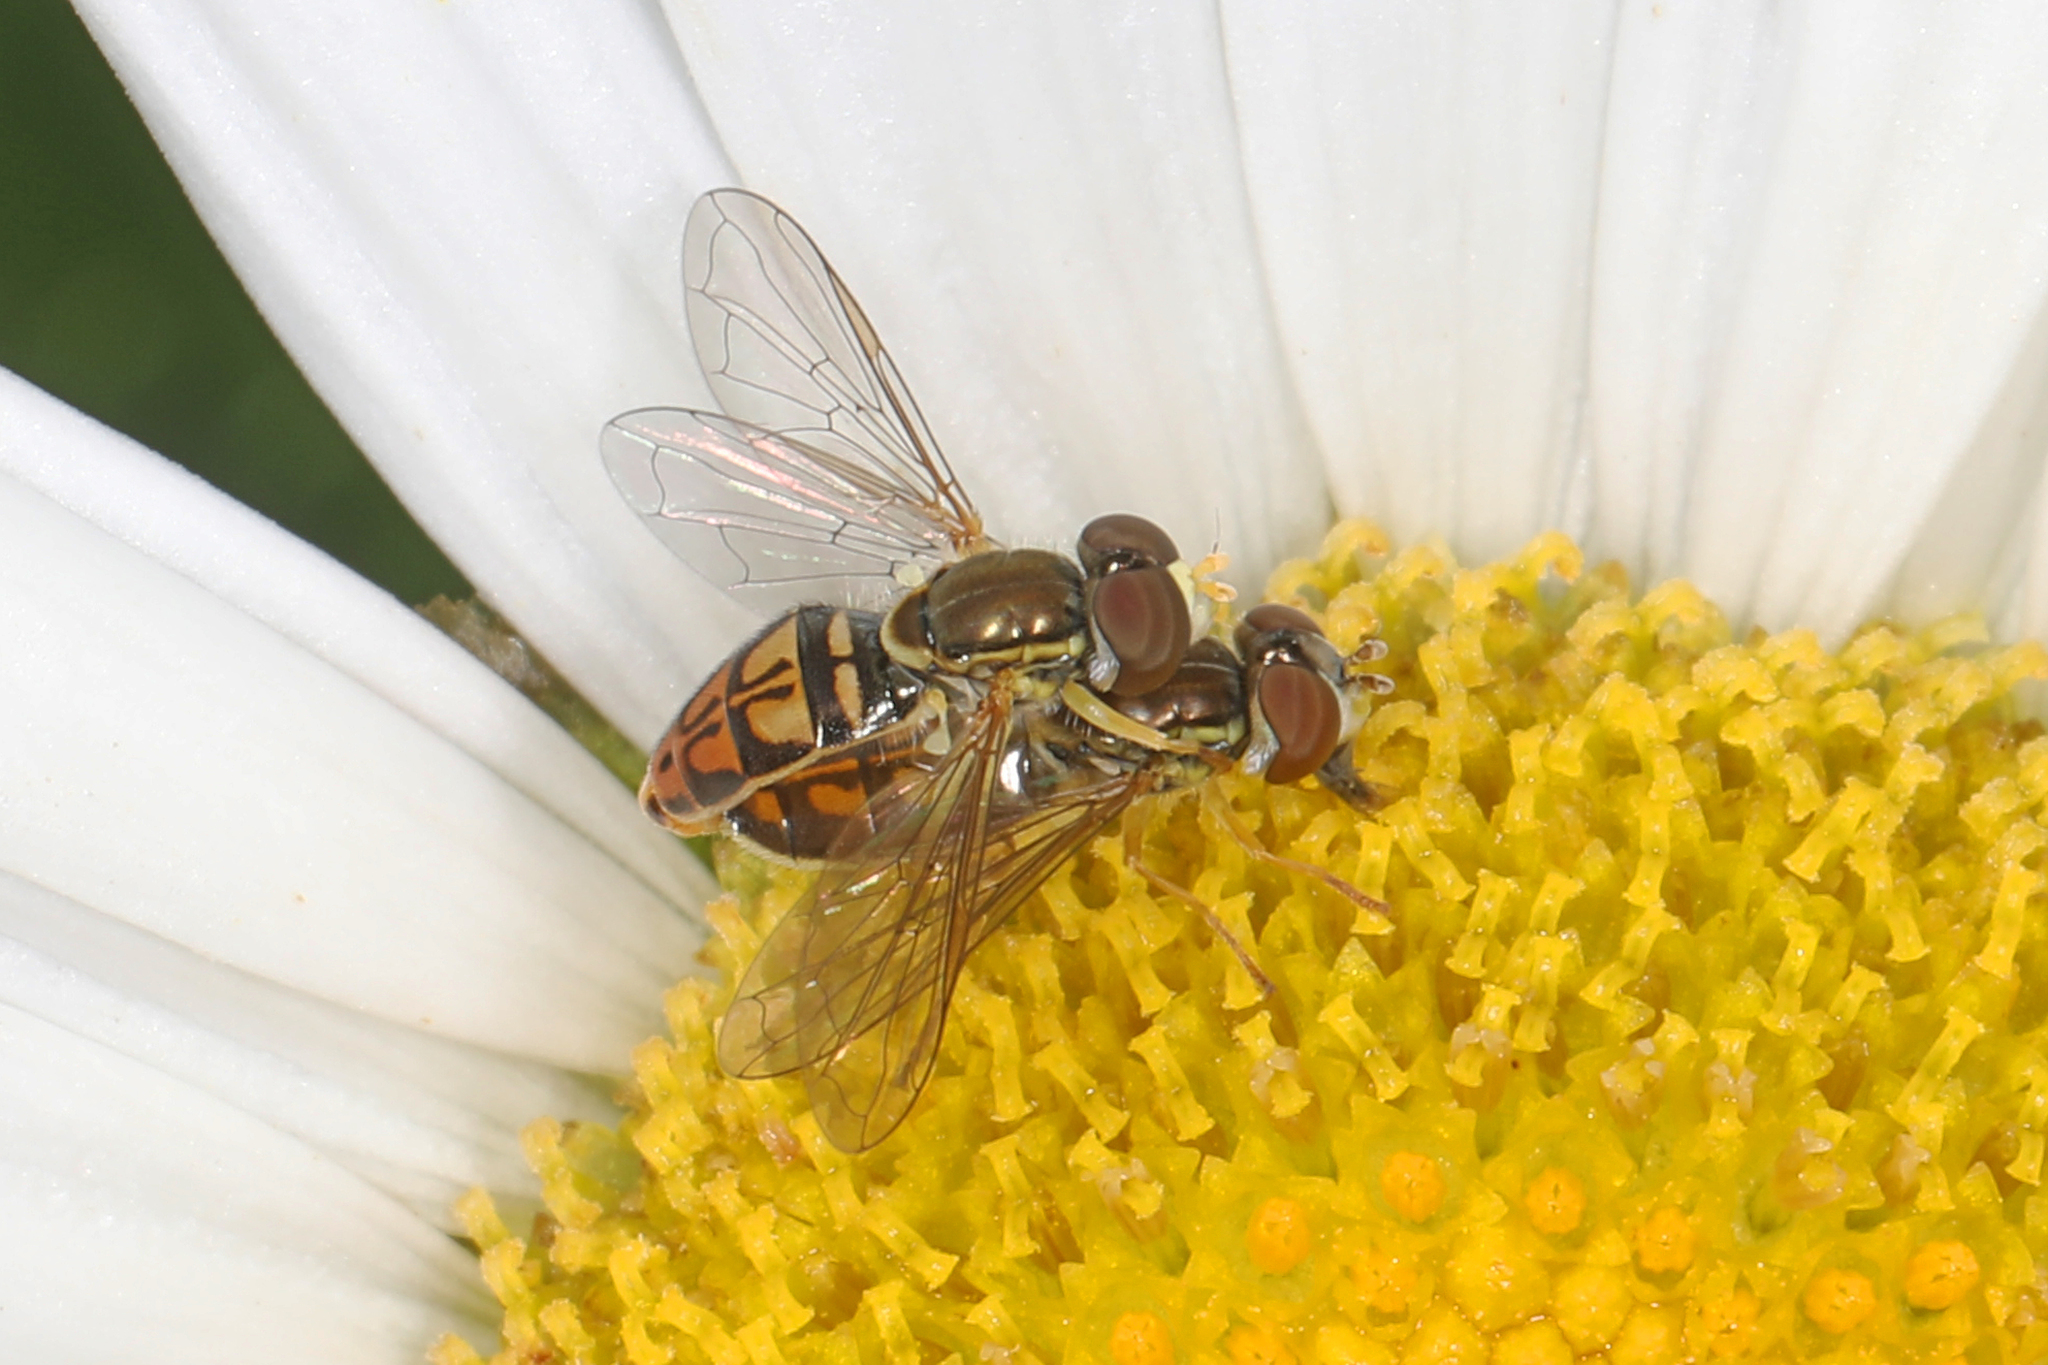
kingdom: Animalia
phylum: Arthropoda
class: Insecta
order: Diptera
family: Syrphidae
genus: Toxomerus
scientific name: Toxomerus marginatus
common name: Syrphid fly
